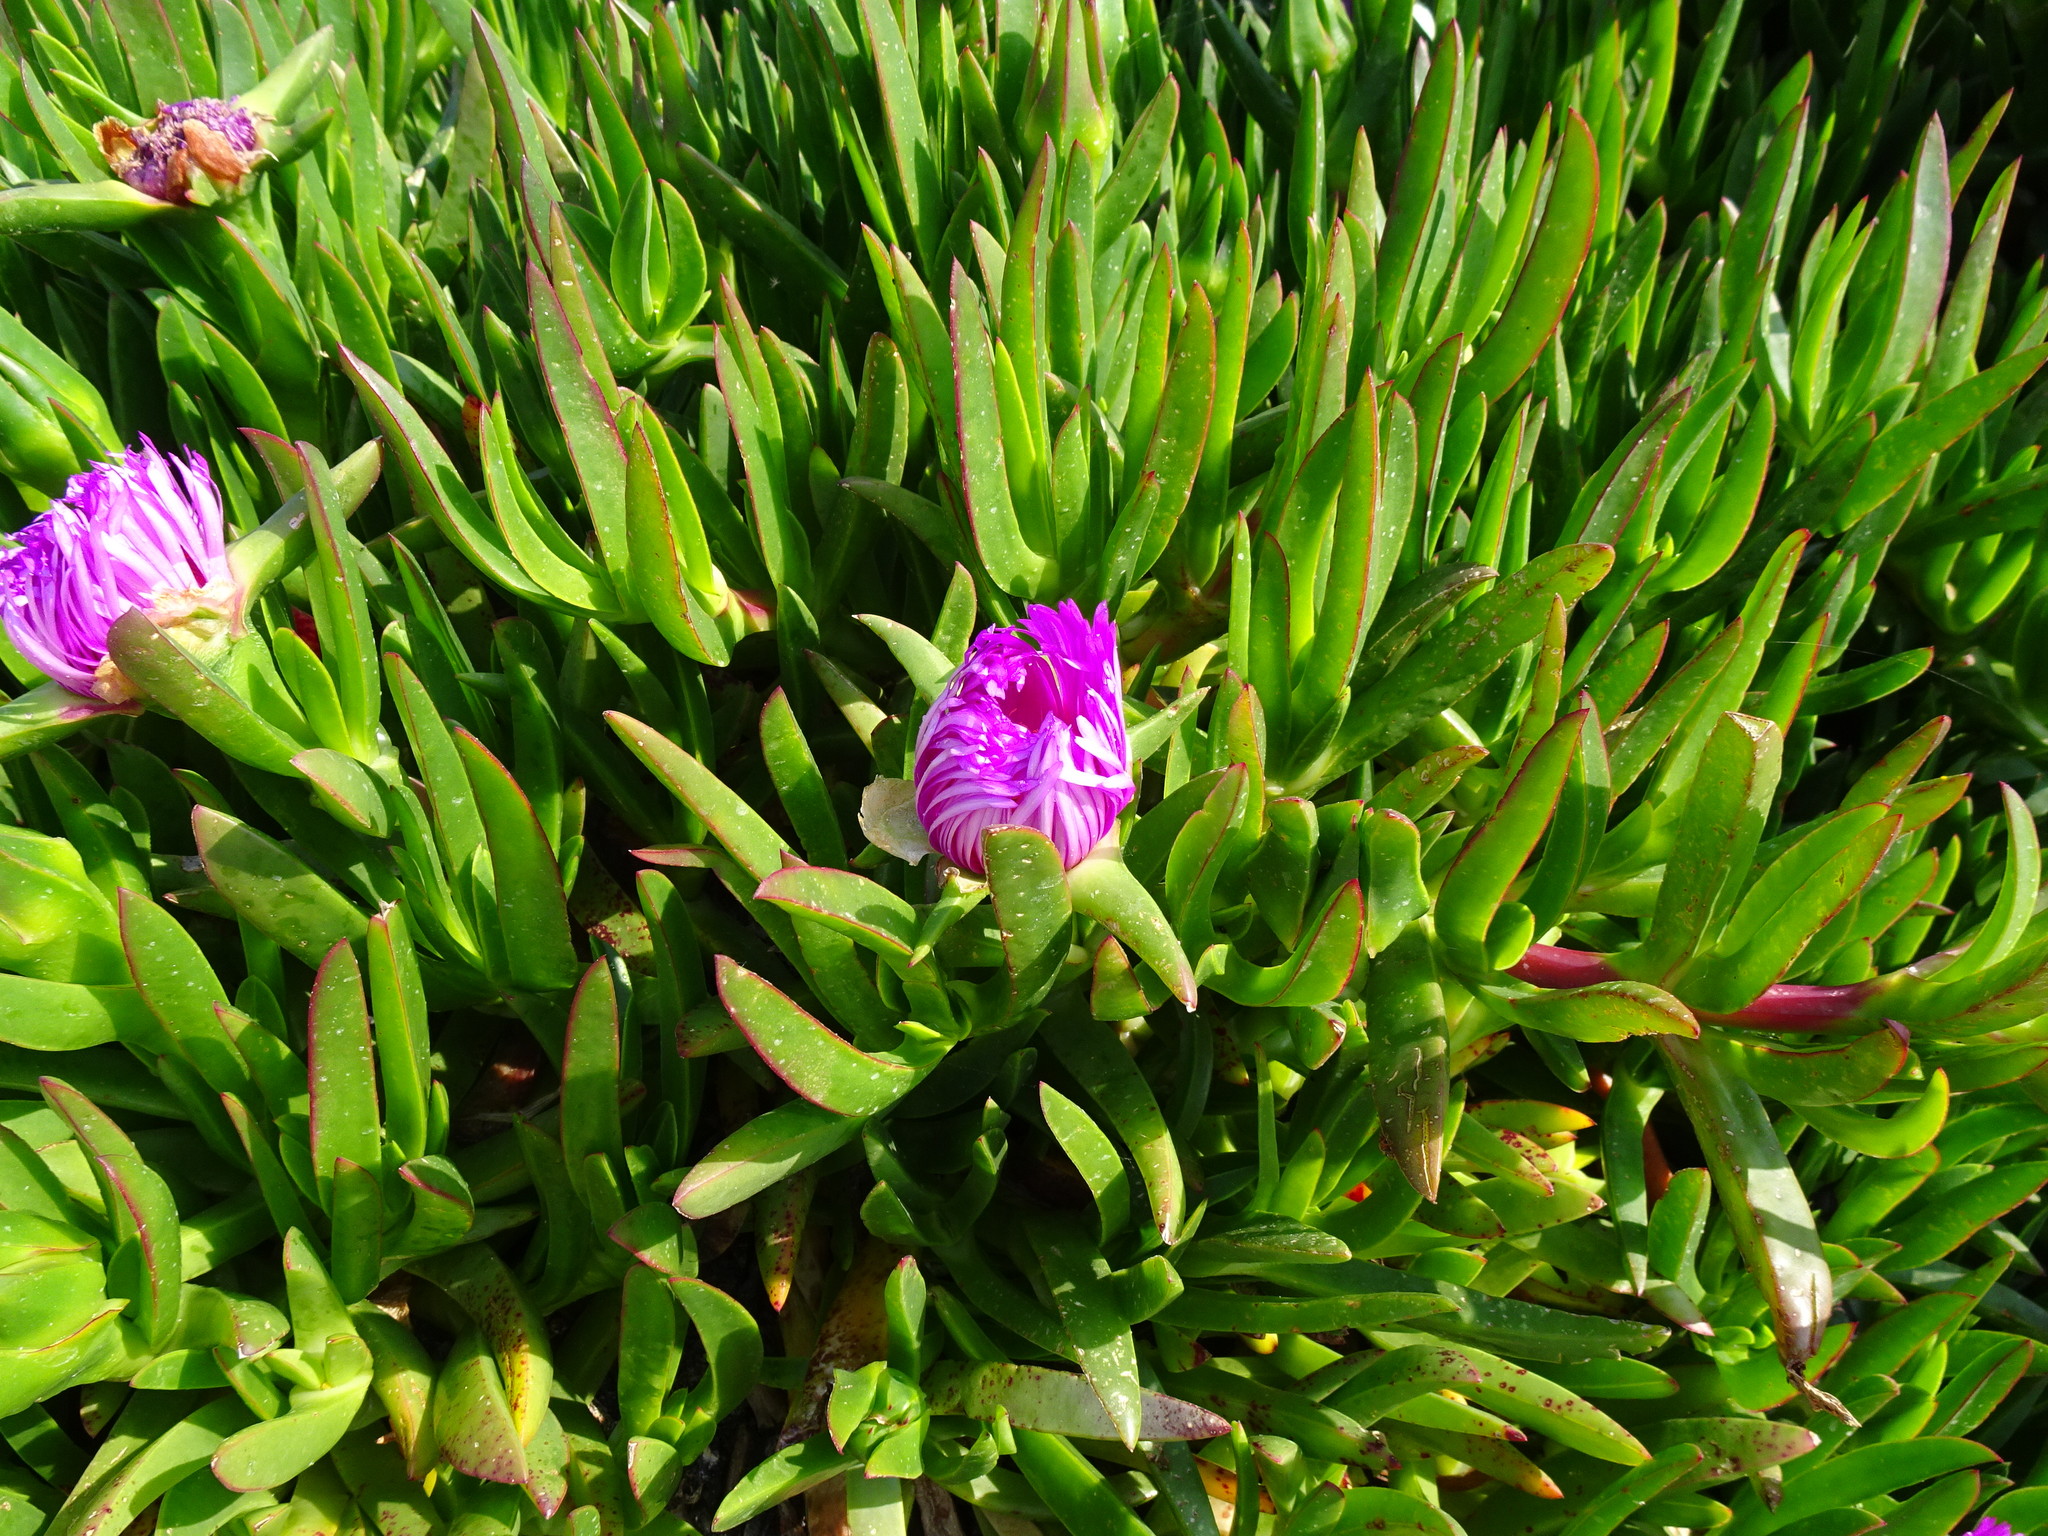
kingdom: Plantae
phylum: Tracheophyta
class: Magnoliopsida
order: Caryophyllales
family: Aizoaceae
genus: Carpobrotus
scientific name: Carpobrotus edulis
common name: Hottentot-fig
